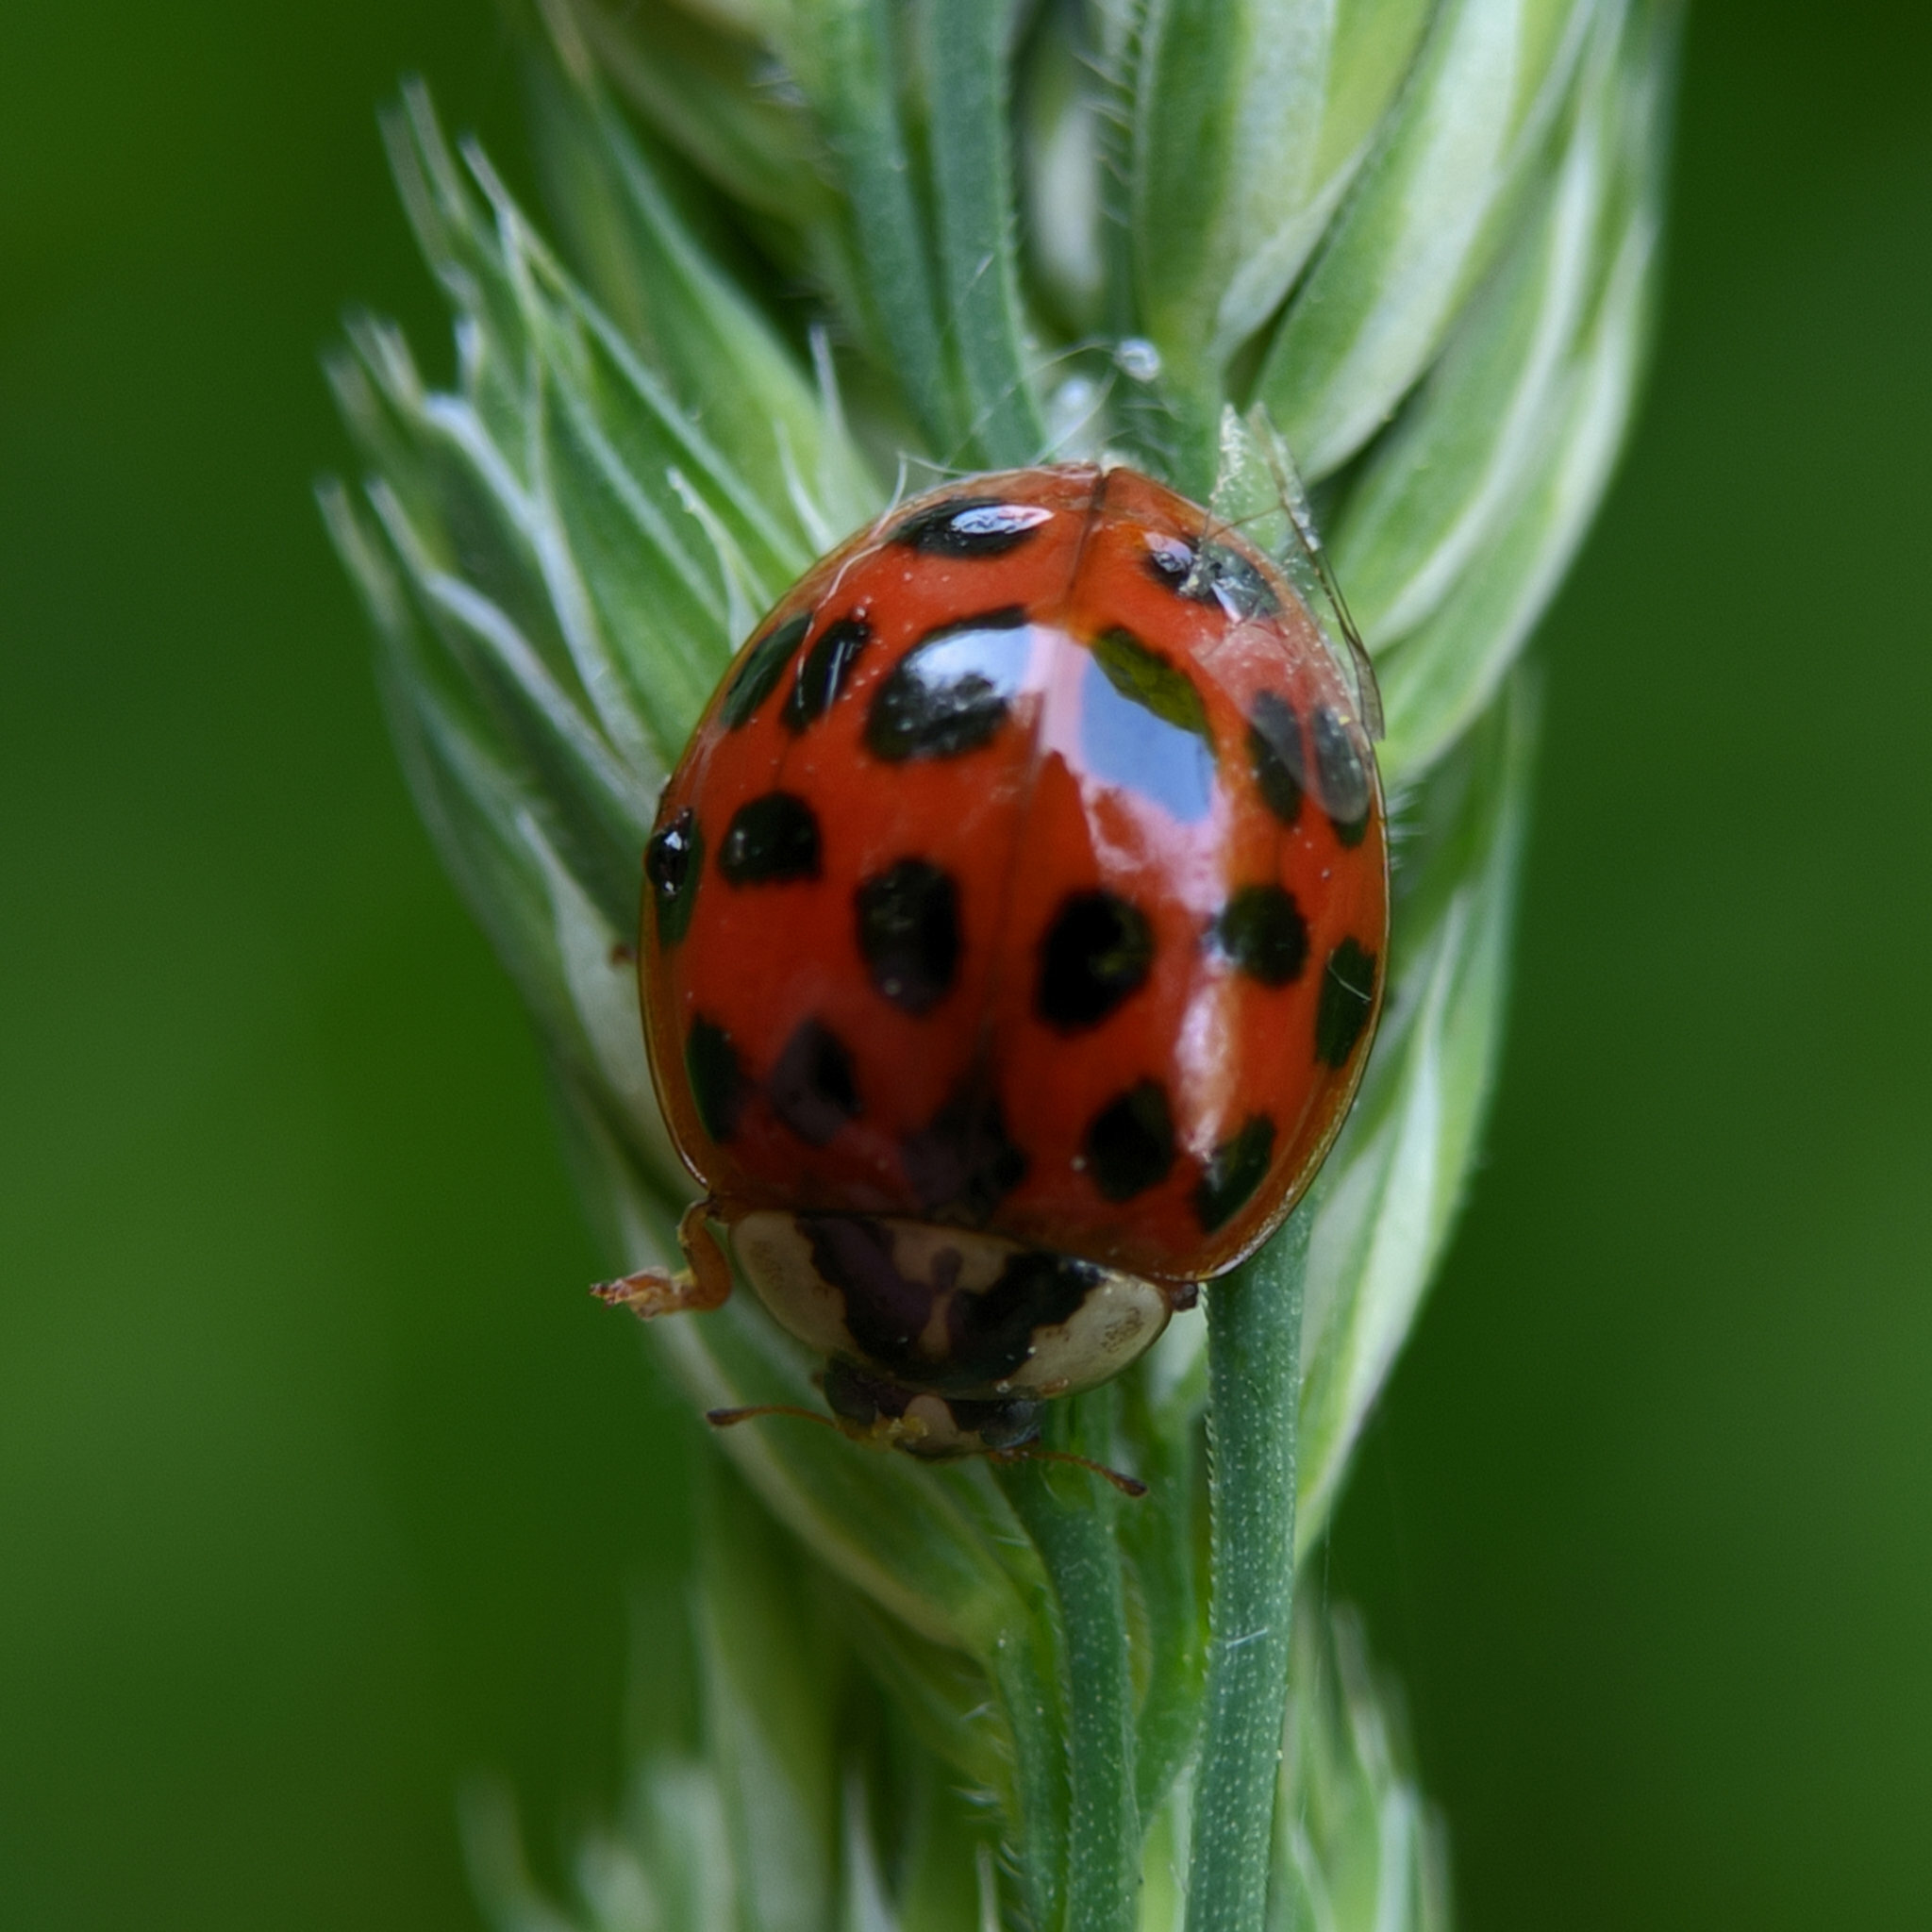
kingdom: Animalia
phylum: Arthropoda
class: Insecta
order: Coleoptera
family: Coccinellidae
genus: Harmonia
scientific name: Harmonia axyridis
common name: Harlequin ladybird
